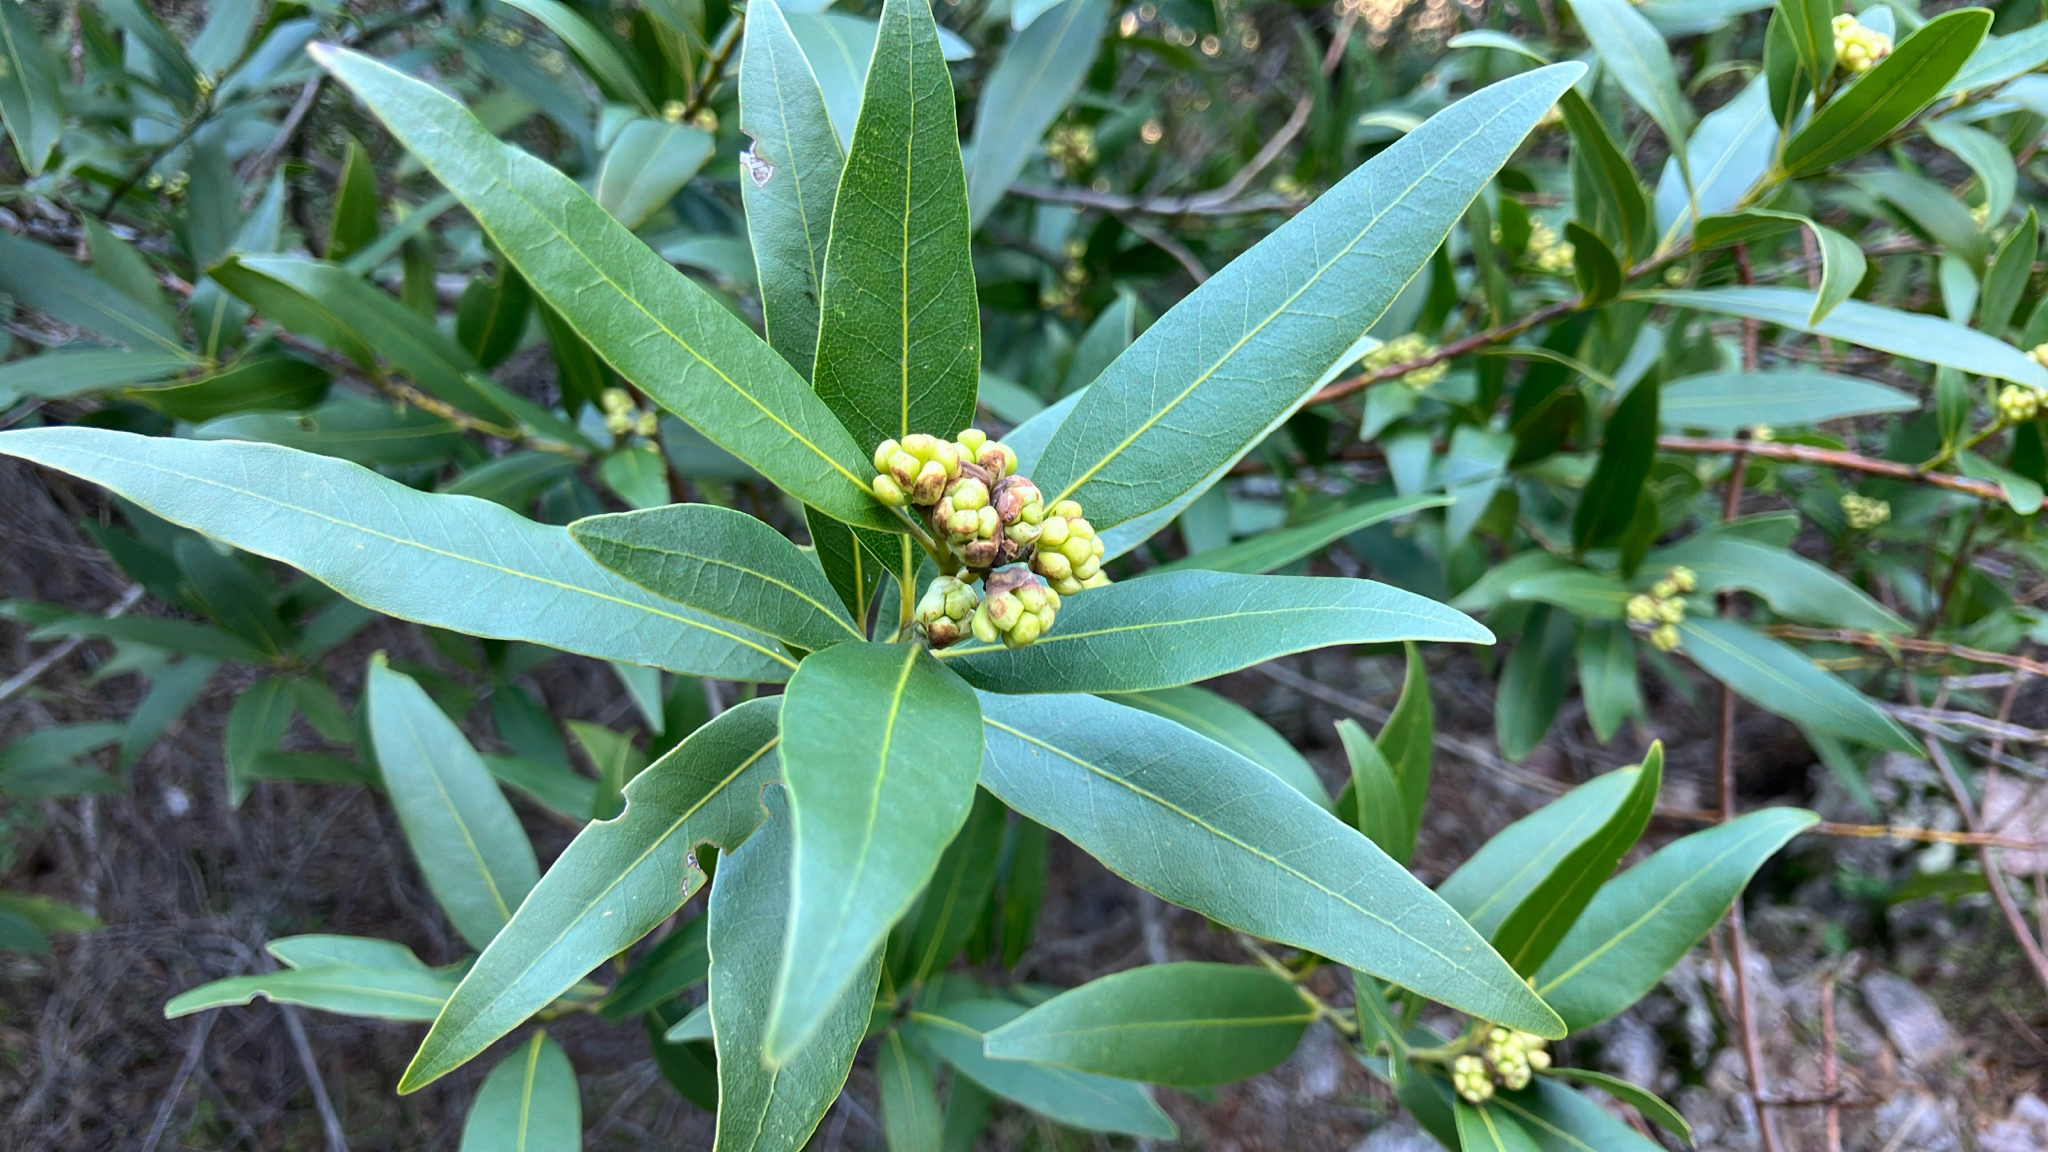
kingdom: Plantae
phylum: Tracheophyta
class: Magnoliopsida
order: Laurales
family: Lauraceae
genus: Umbellularia
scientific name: Umbellularia californica
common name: California bay
